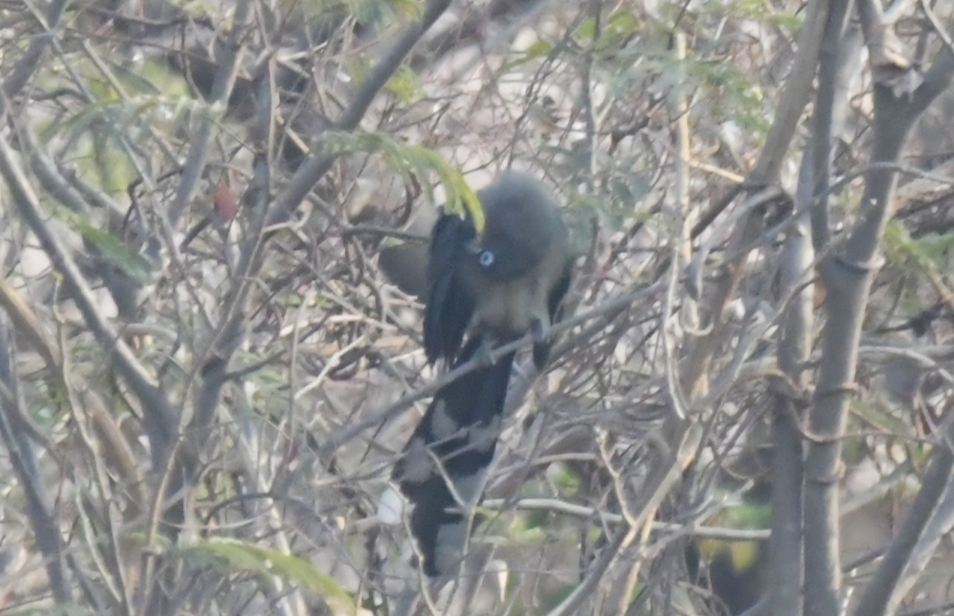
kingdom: Animalia
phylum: Chordata
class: Aves
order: Cuculiformes
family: Cuculidae
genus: Rhopodytes
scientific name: Rhopodytes viridirostris
